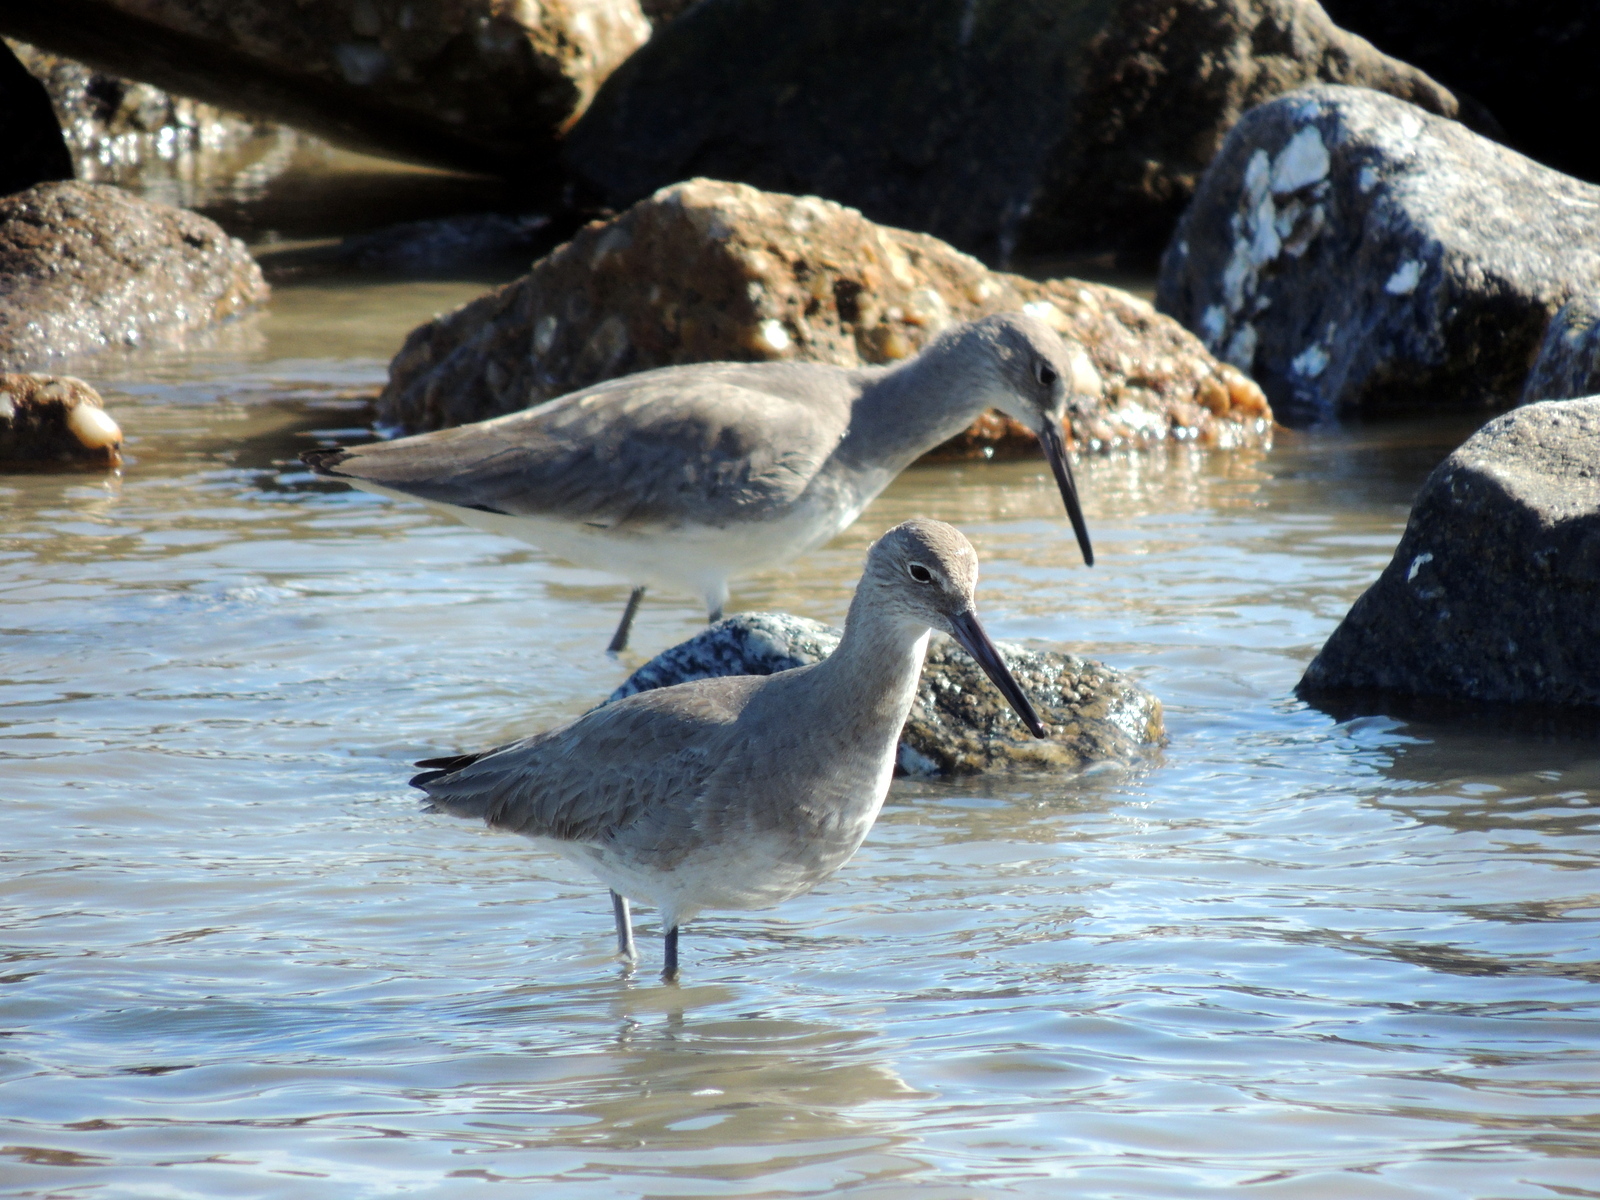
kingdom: Animalia
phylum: Chordata
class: Aves
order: Charadriiformes
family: Scolopacidae
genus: Tringa
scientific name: Tringa semipalmata
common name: Willet
